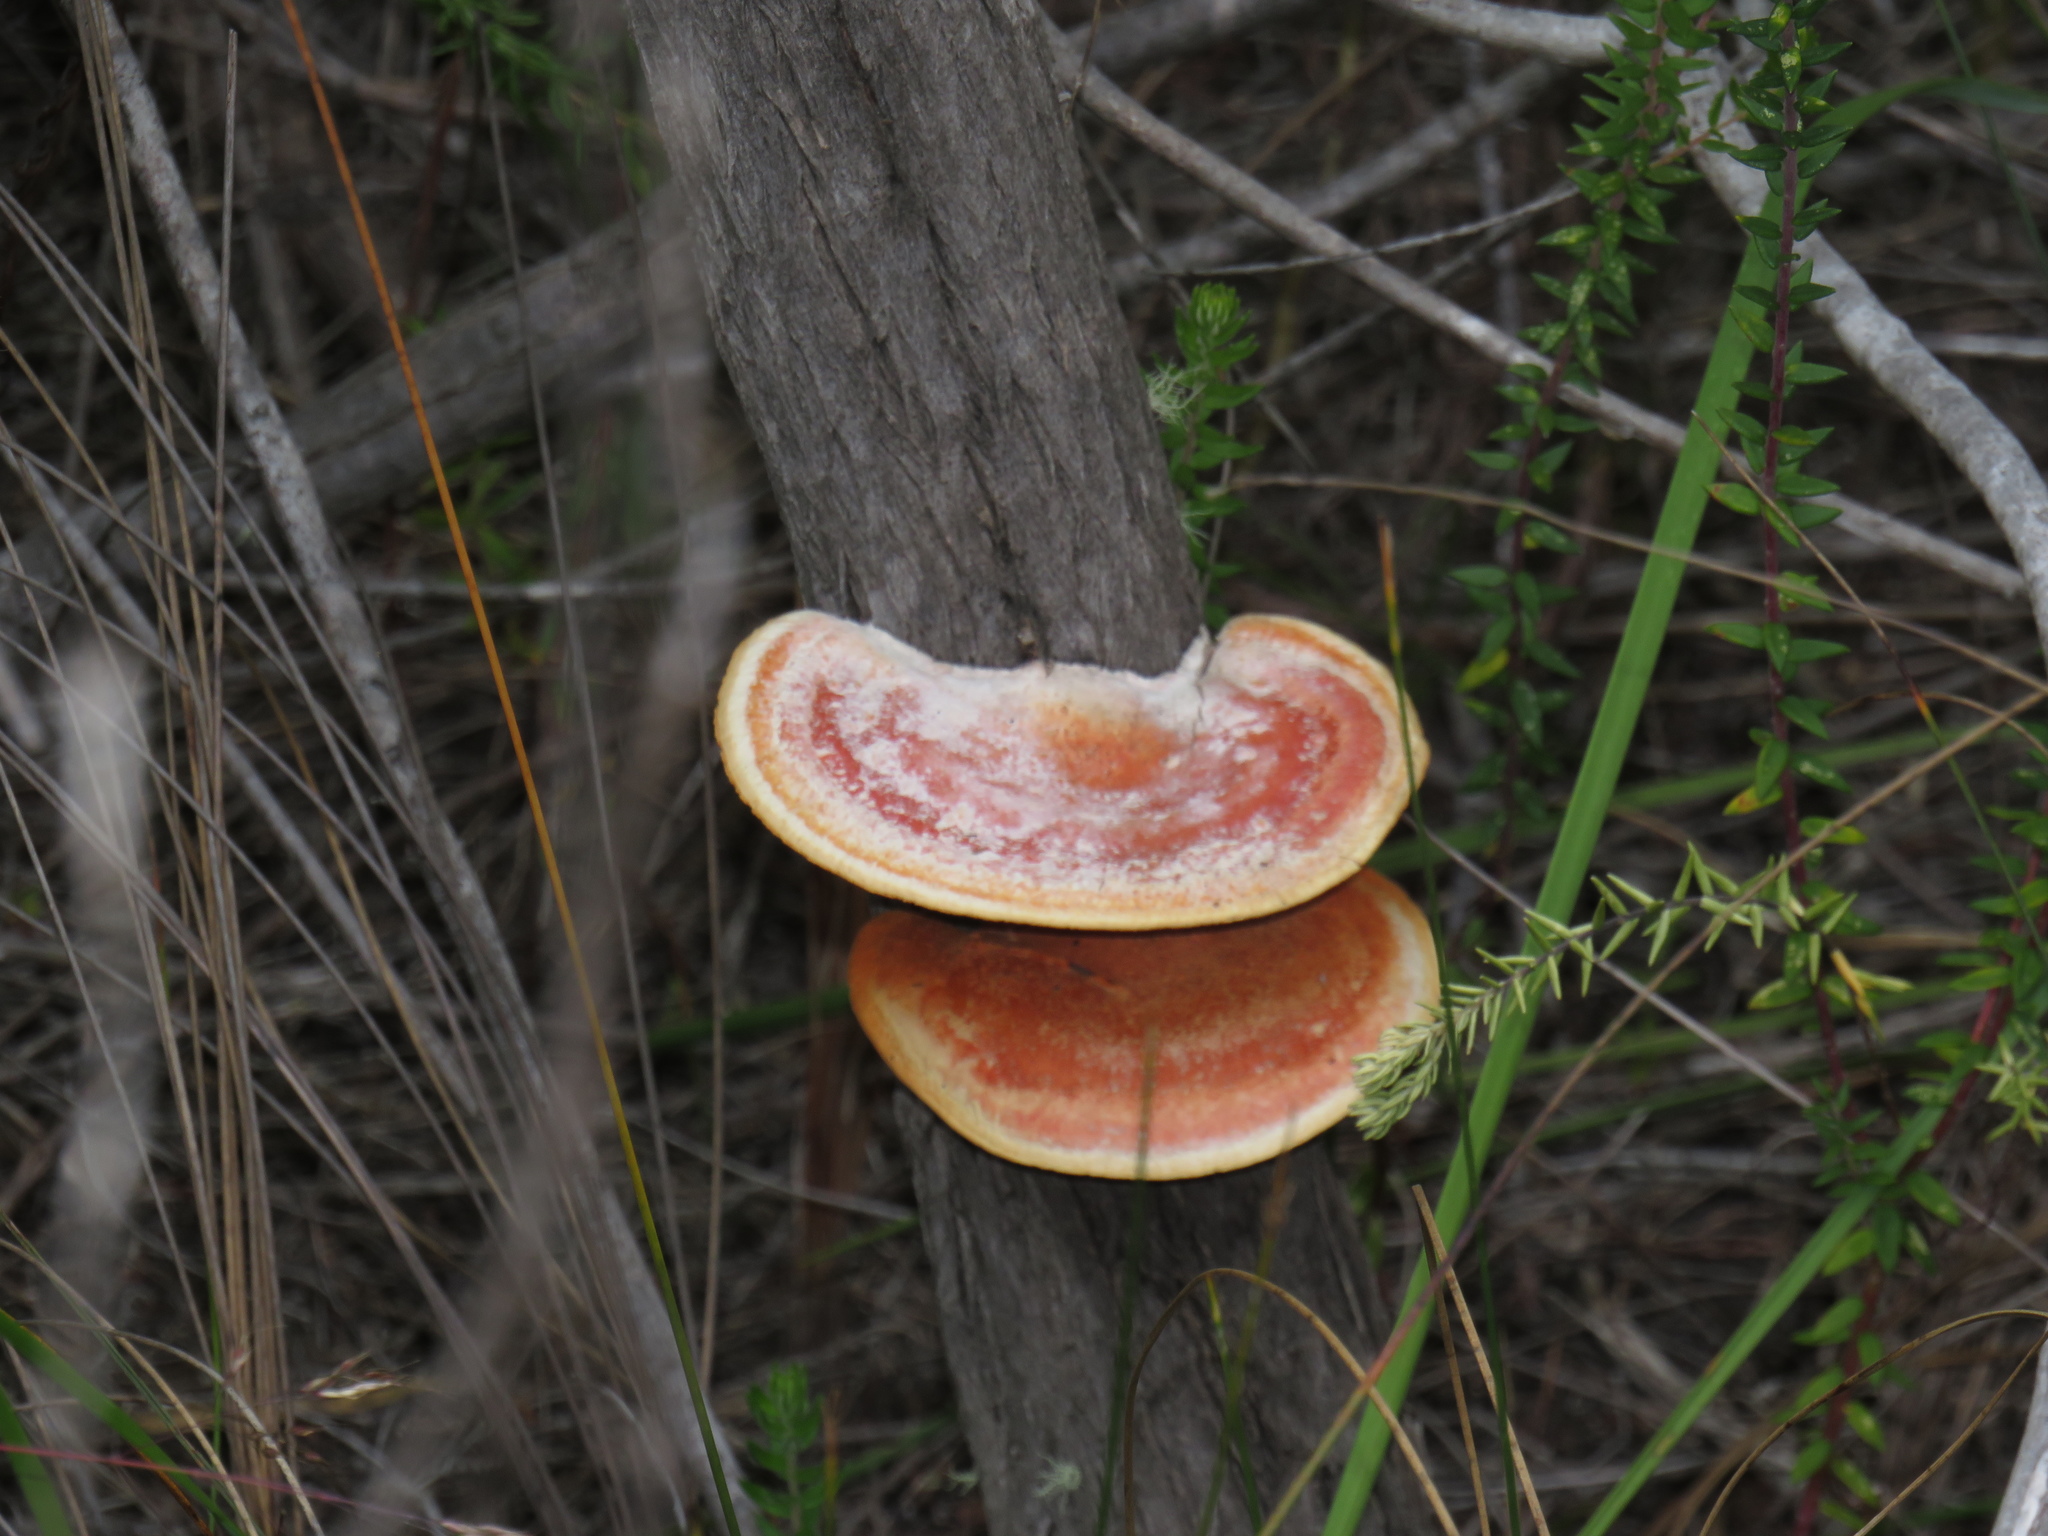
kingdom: Fungi
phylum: Basidiomycota
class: Agaricomycetes
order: Polyporales
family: Polyporaceae
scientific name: Polyporaceae
